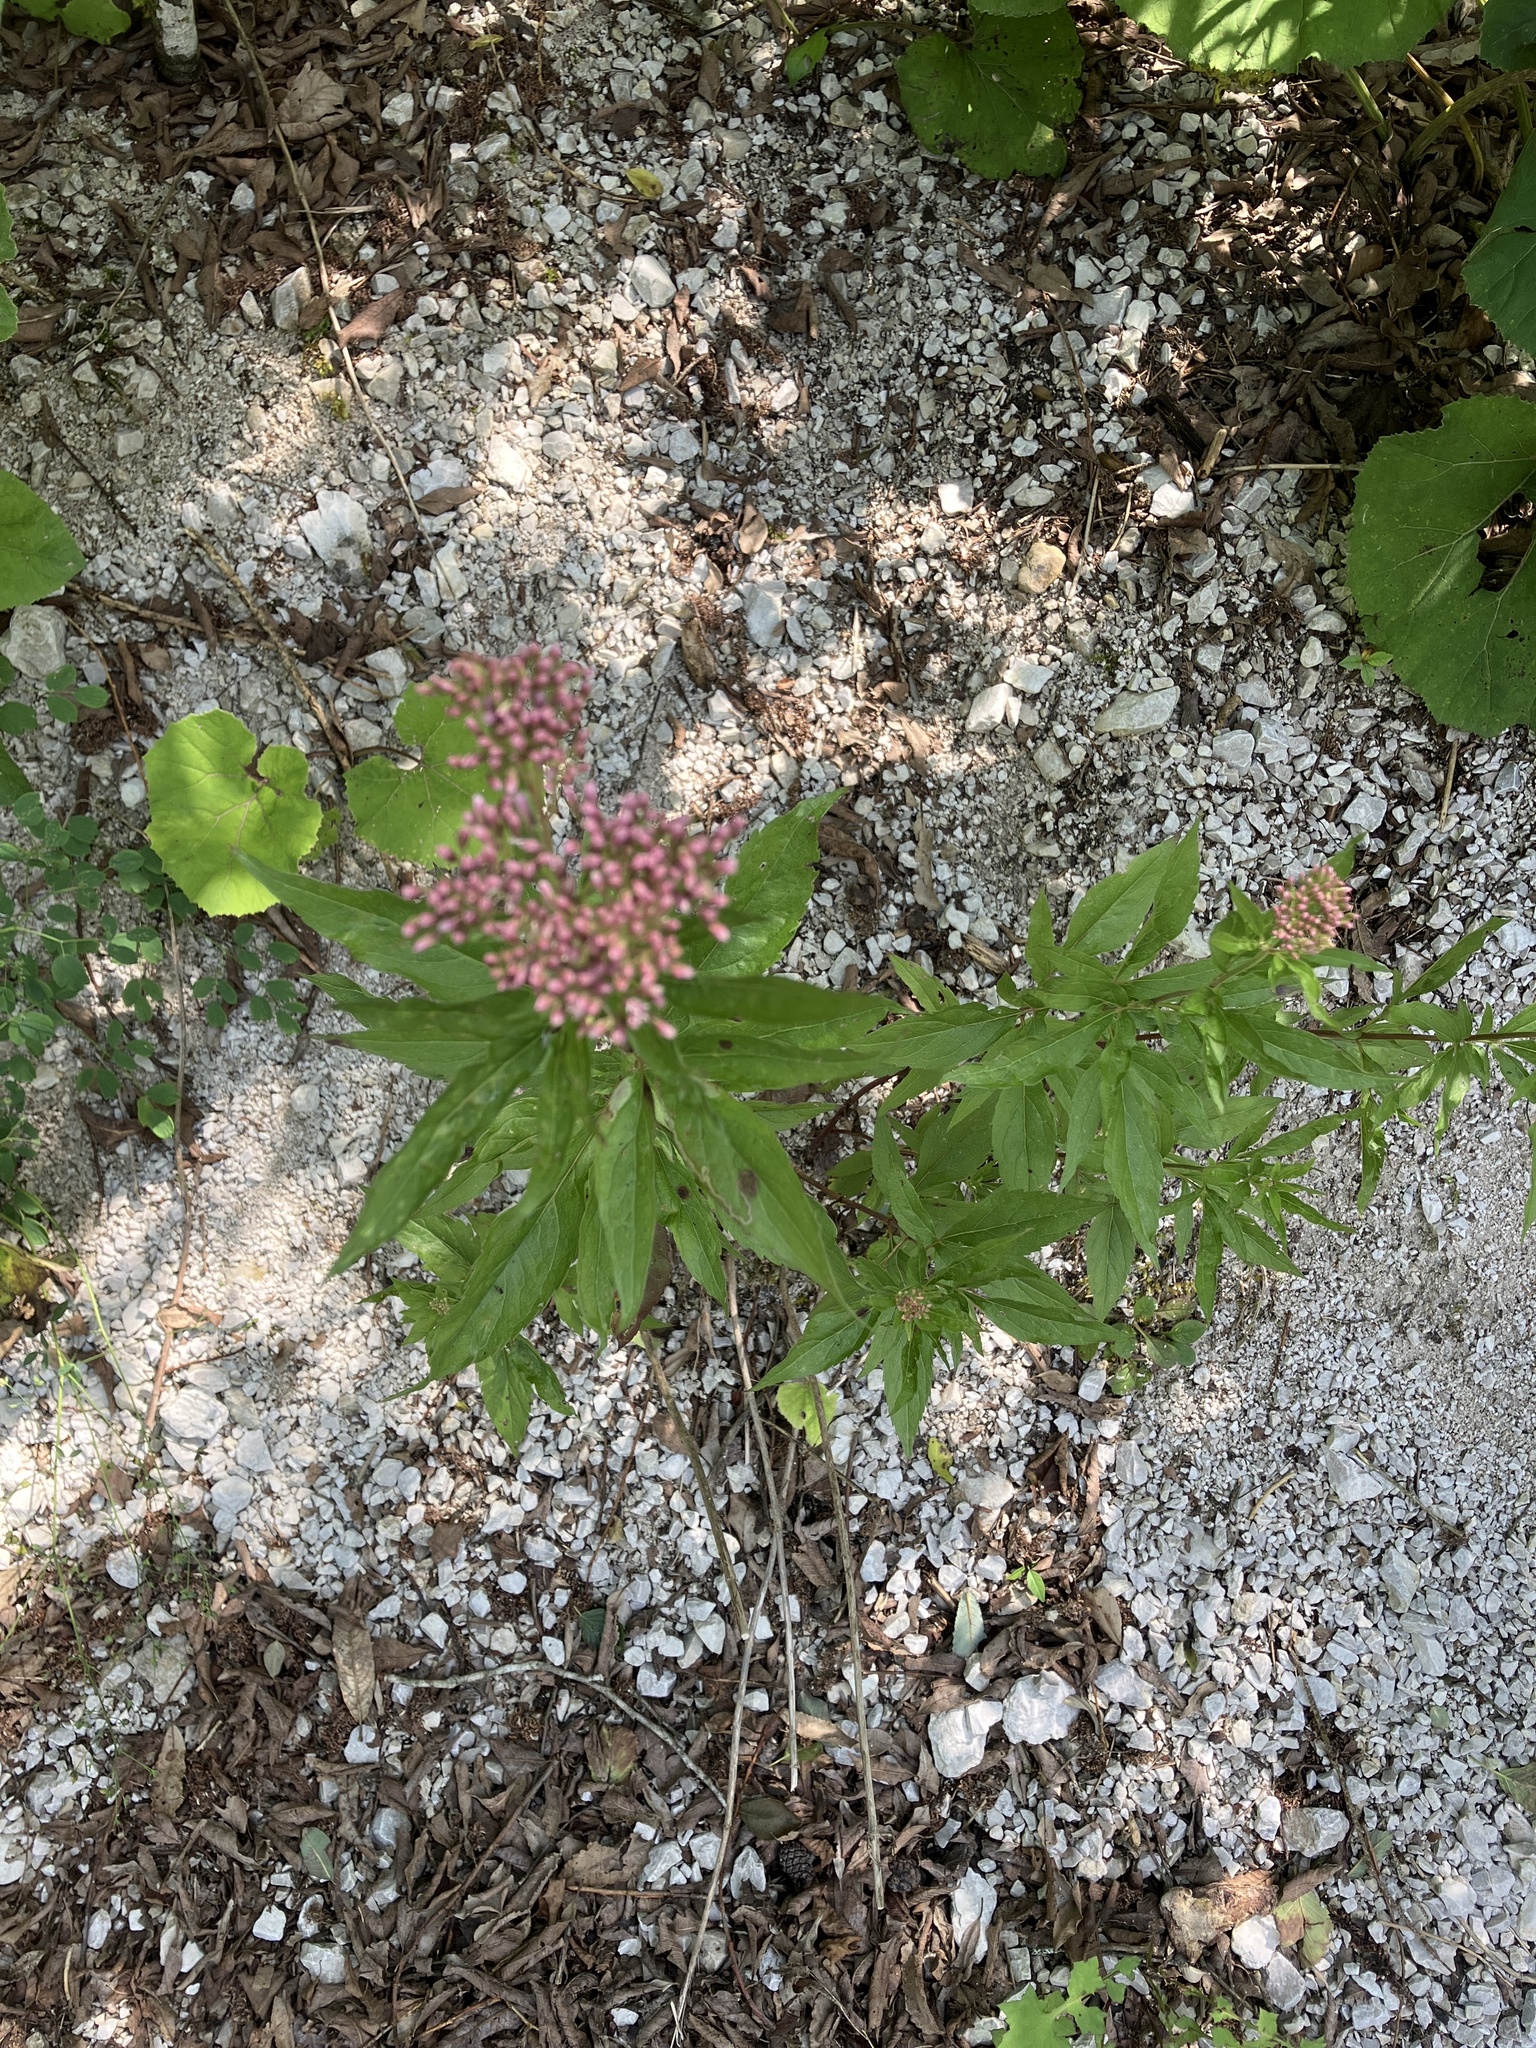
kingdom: Plantae
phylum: Tracheophyta
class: Magnoliopsida
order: Asterales
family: Asteraceae
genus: Eupatorium
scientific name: Eupatorium cannabinum
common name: Hemp-agrimony
